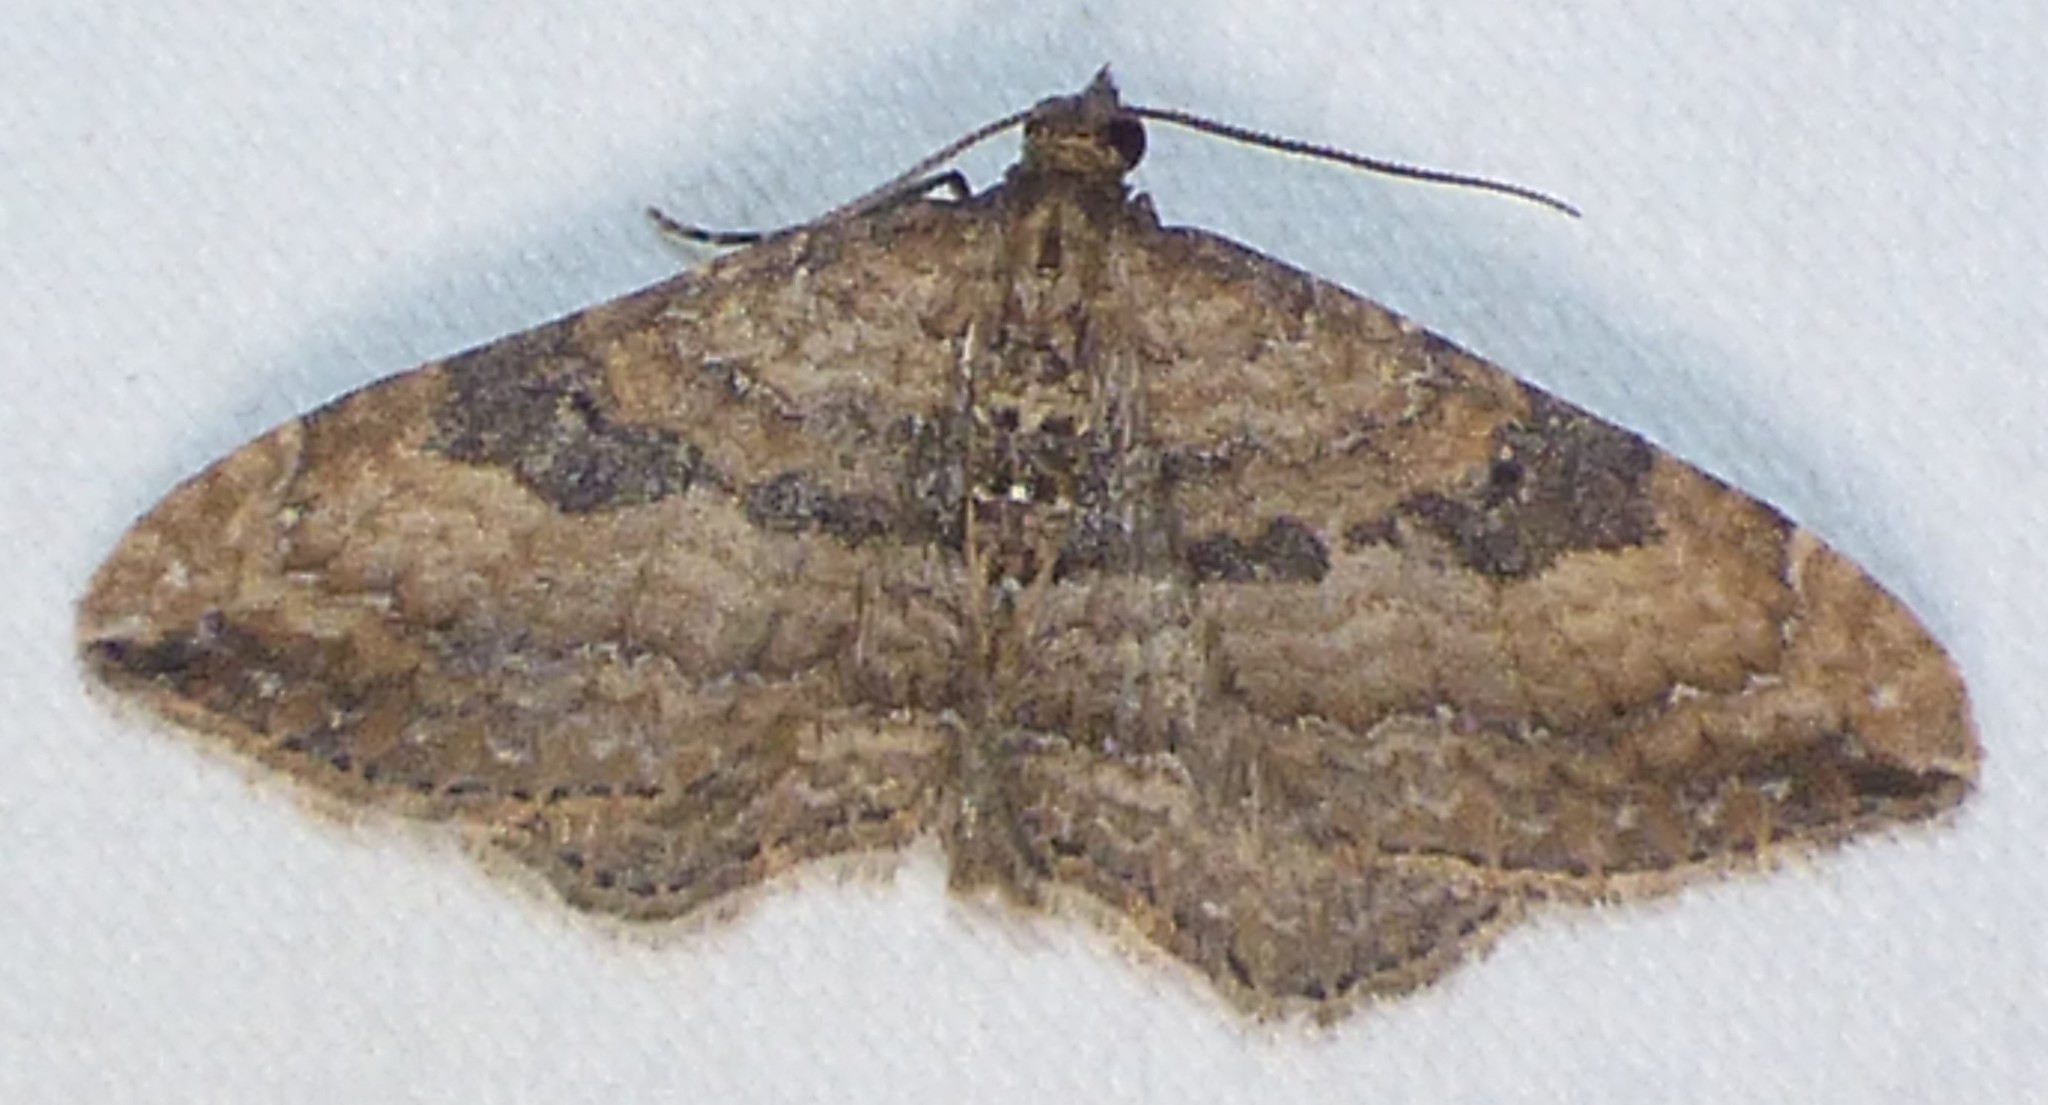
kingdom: Animalia
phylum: Arthropoda
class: Insecta
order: Lepidoptera
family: Geometridae
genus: Orthonama
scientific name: Orthonama obstipata
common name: The gem
